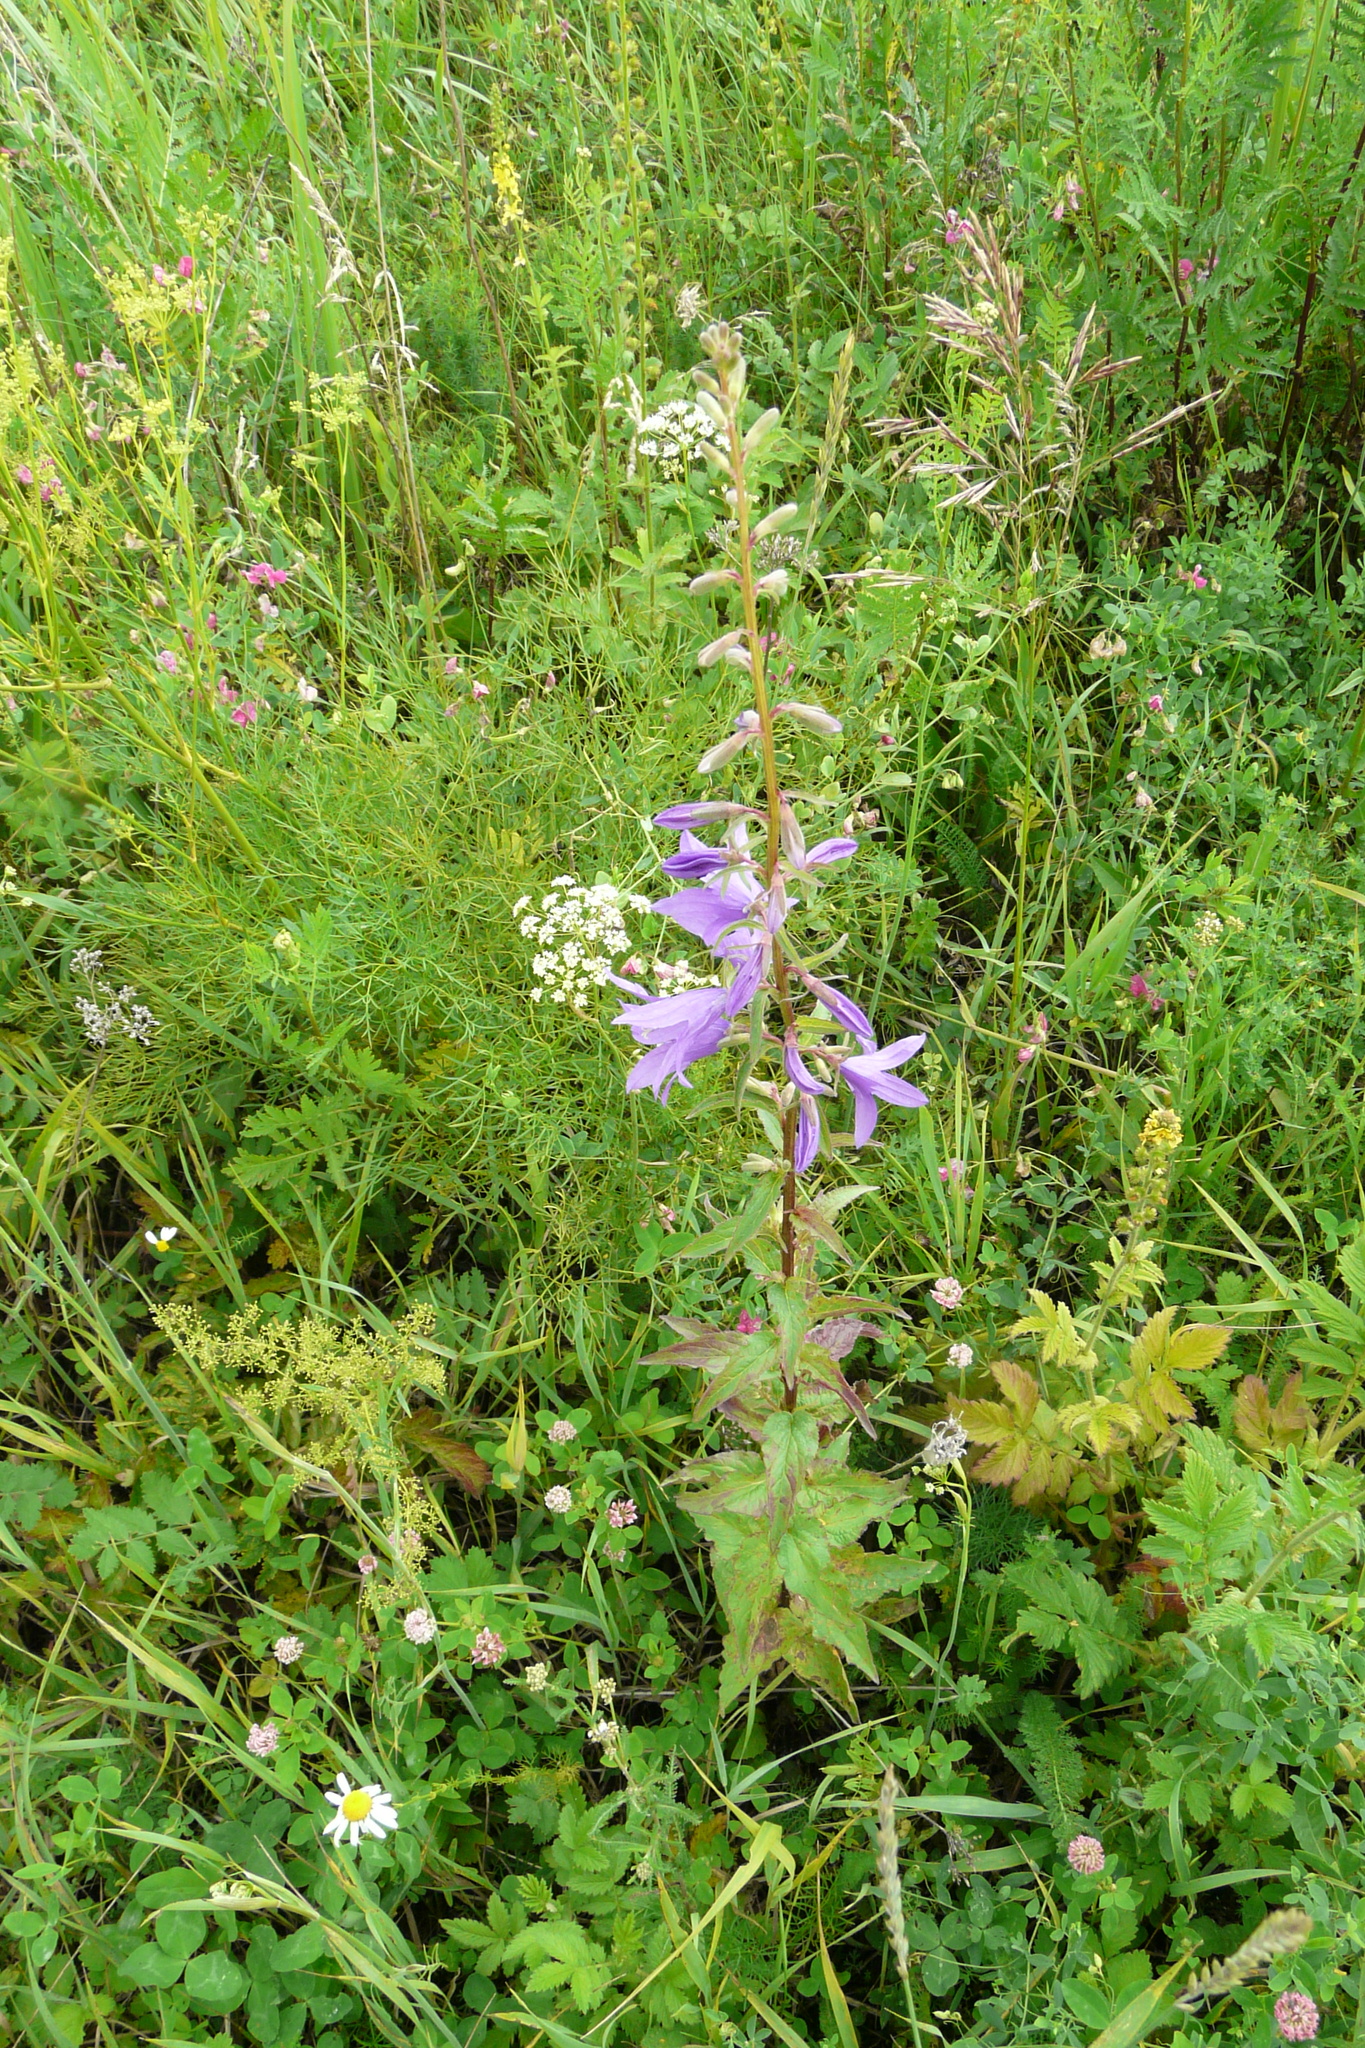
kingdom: Plantae
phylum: Tracheophyta
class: Magnoliopsida
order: Asterales
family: Campanulaceae
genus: Campanula
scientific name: Campanula rapunculoides
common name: Creeping bellflower
